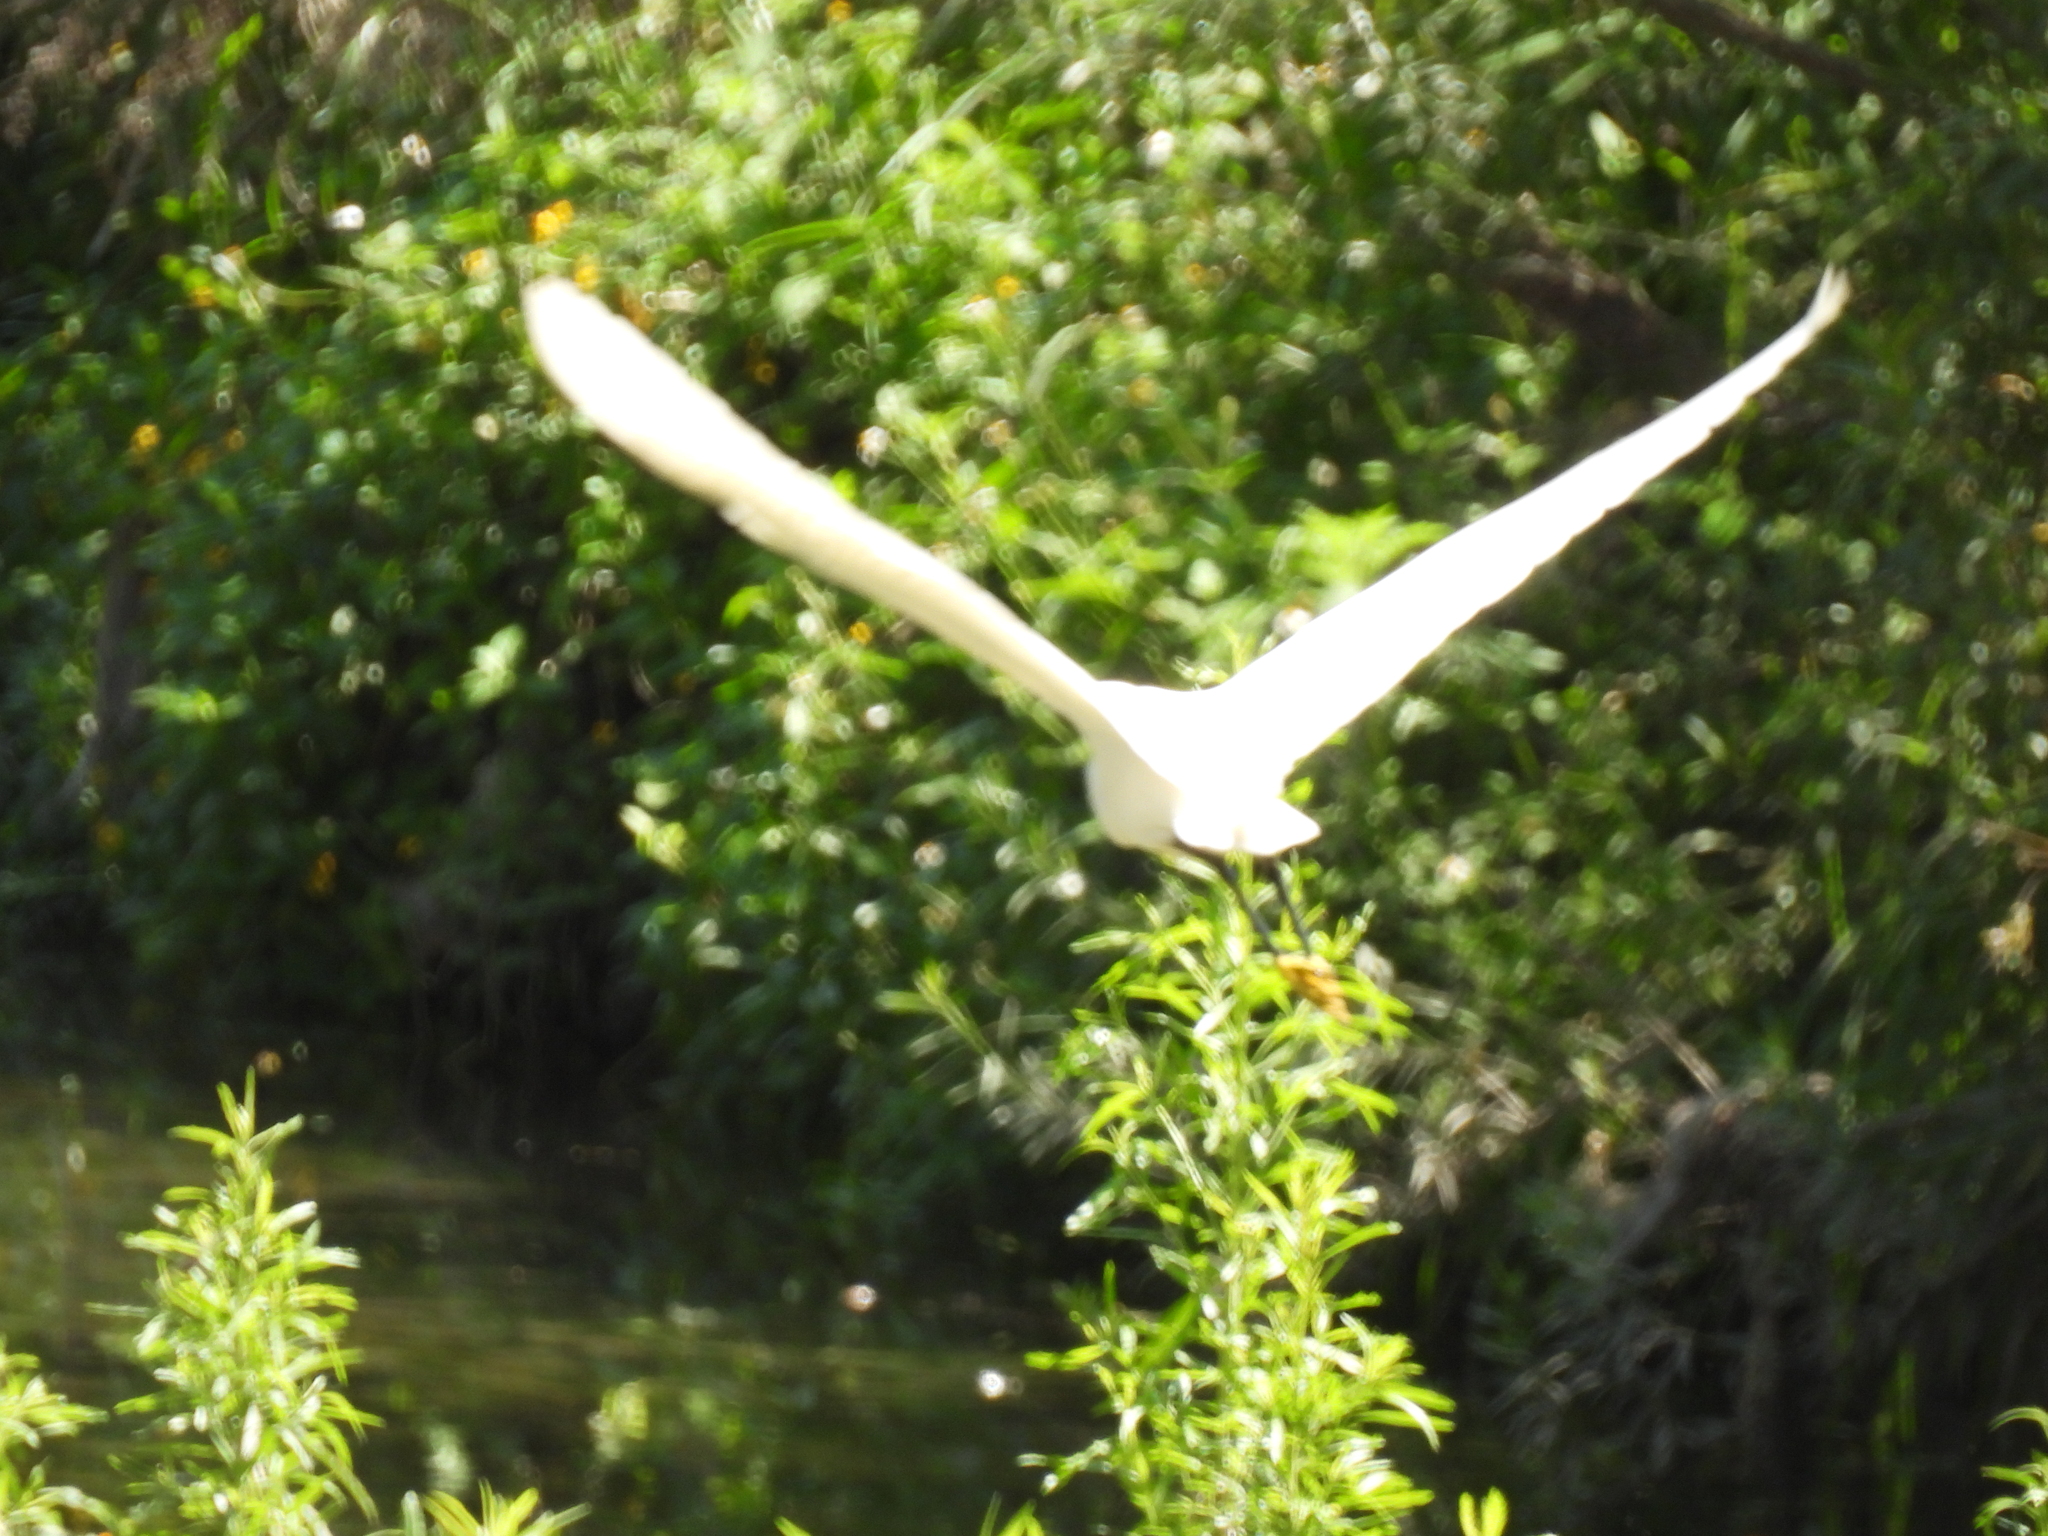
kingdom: Animalia
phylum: Chordata
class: Aves
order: Pelecaniformes
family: Ardeidae
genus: Egretta
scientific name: Egretta thula
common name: Snowy egret
